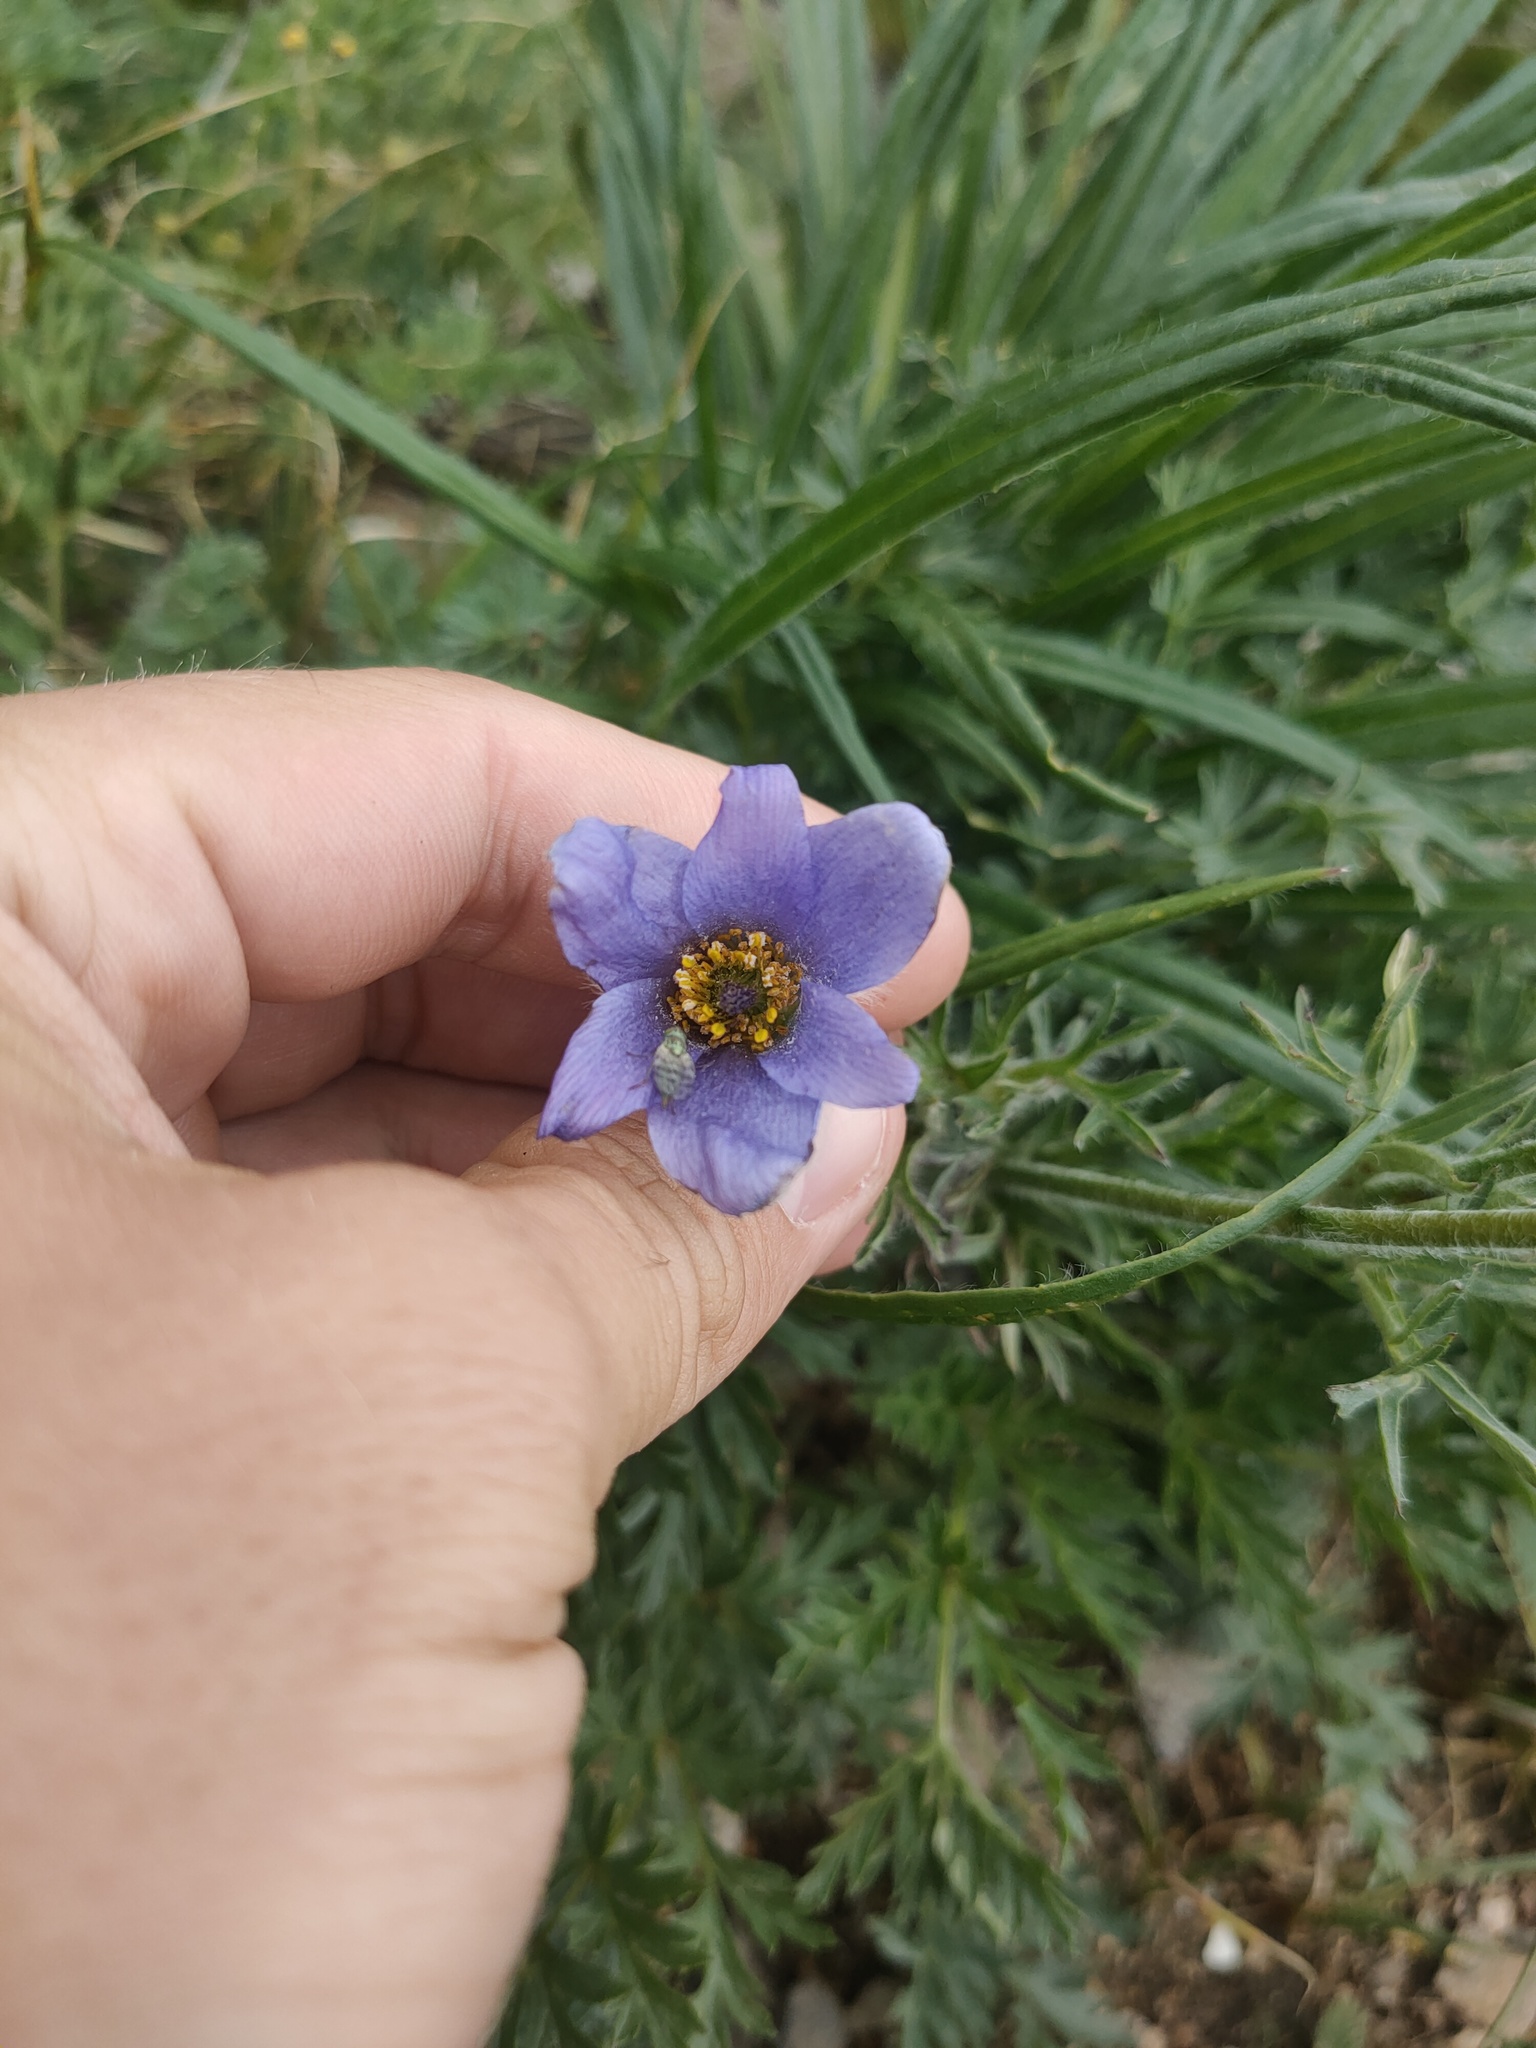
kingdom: Plantae
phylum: Tracheophyta
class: Magnoliopsida
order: Ranunculales
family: Ranunculaceae
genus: Pulsatilla
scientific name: Pulsatilla ambigua
